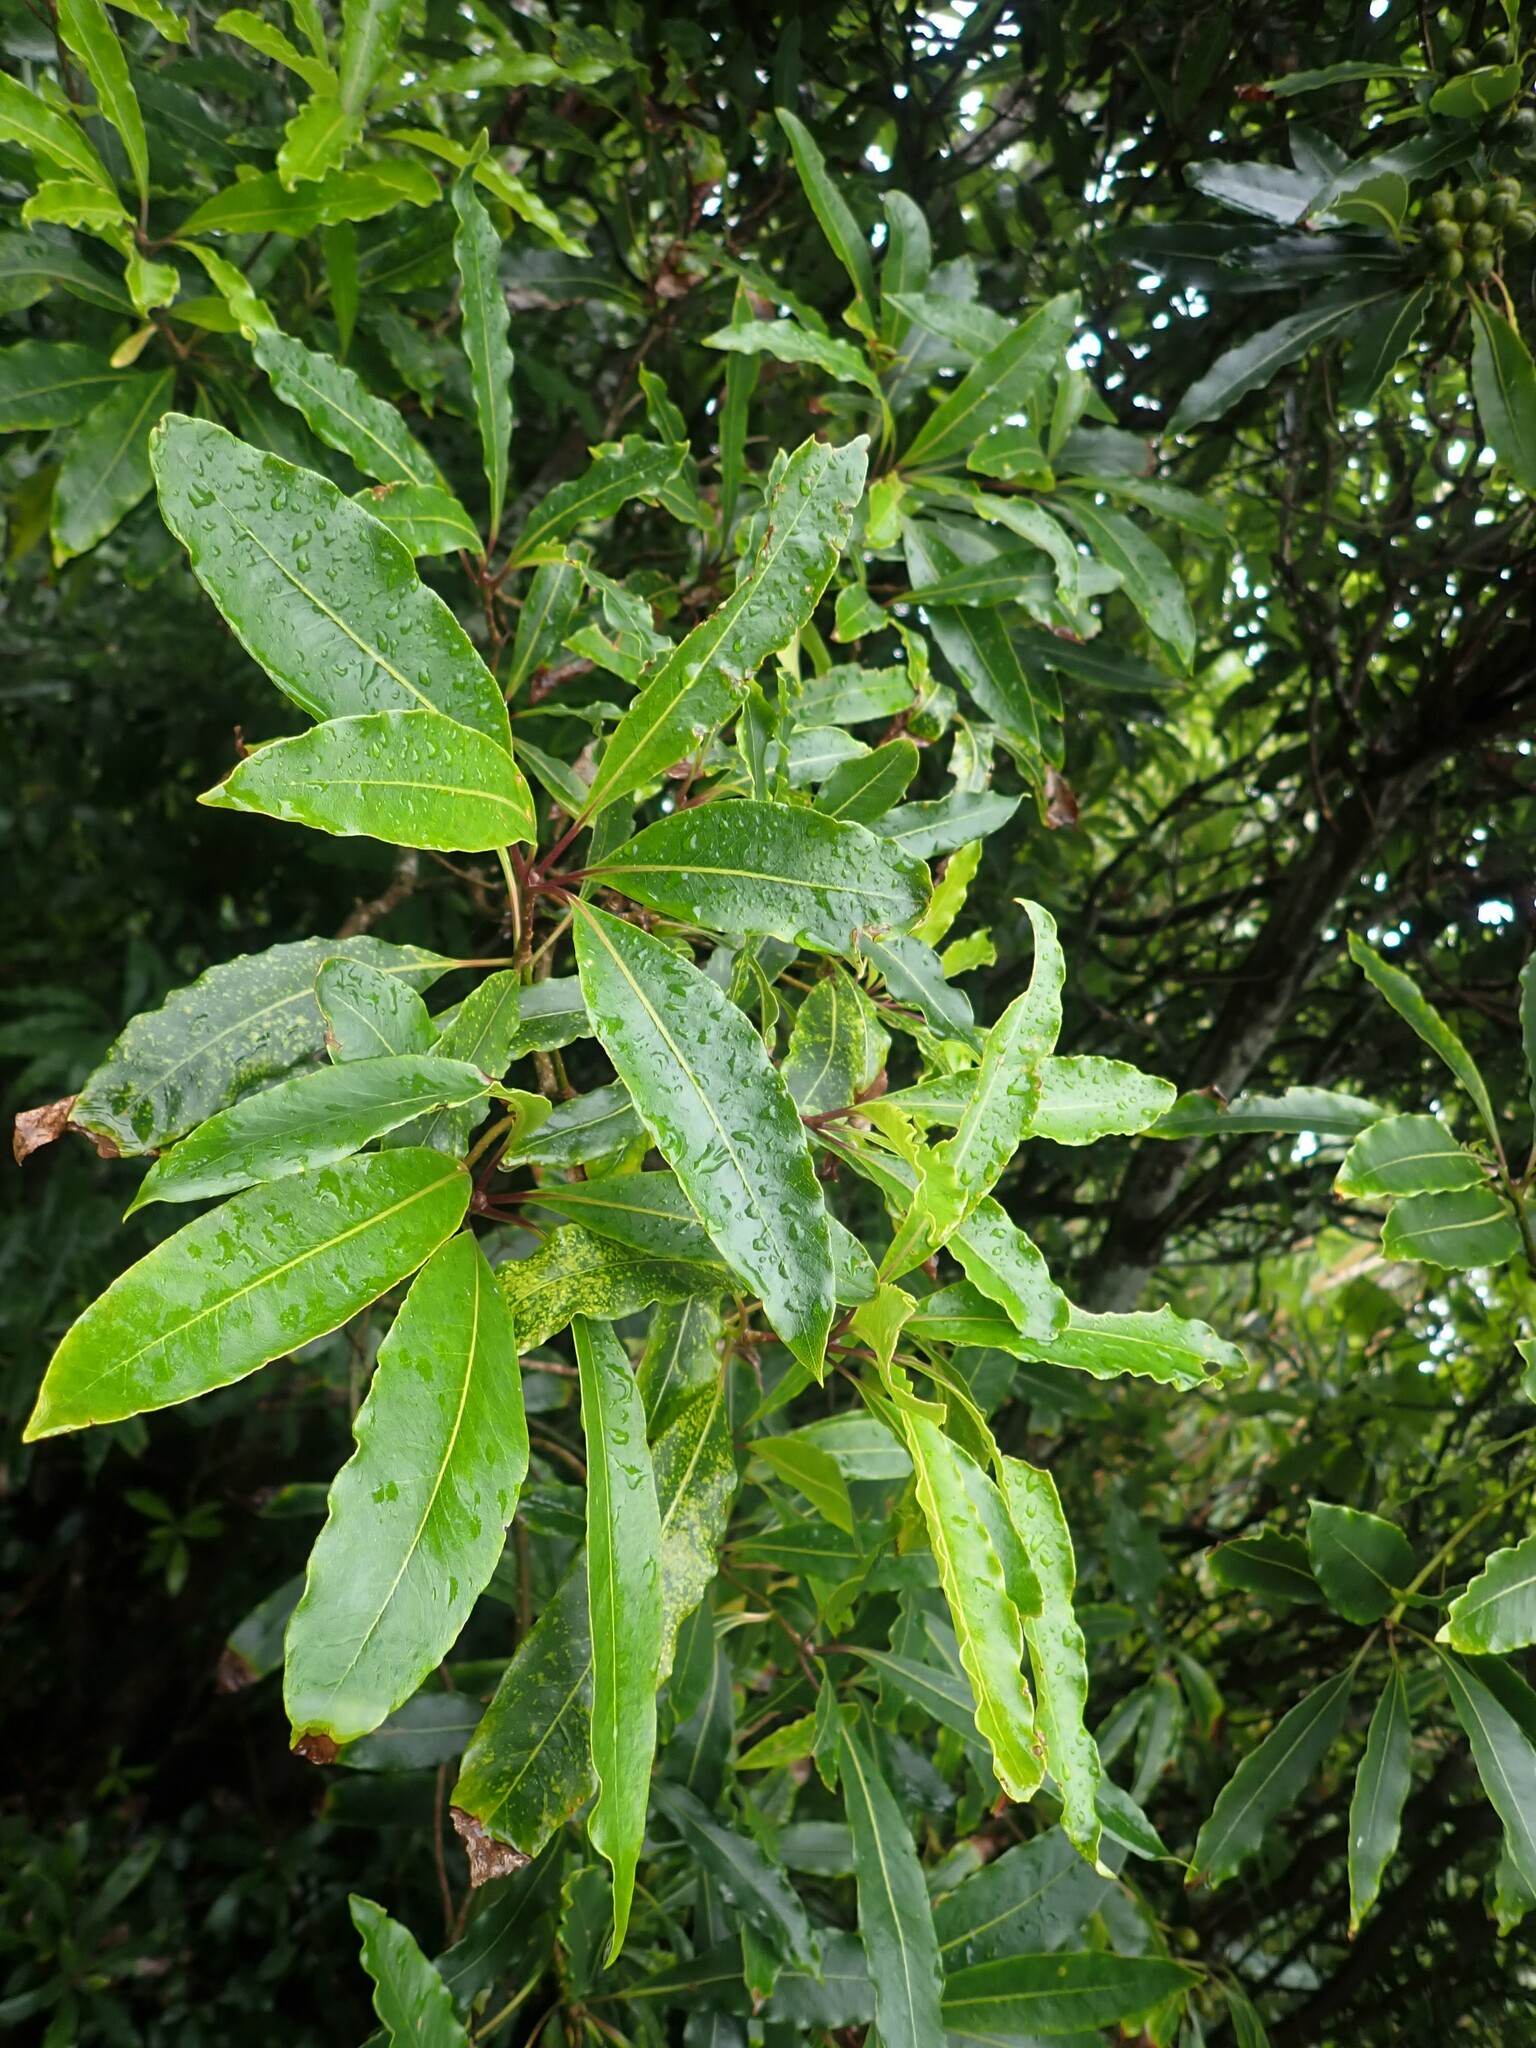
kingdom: Plantae
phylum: Tracheophyta
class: Magnoliopsida
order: Apiales
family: Pittosporaceae
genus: Pittosporum
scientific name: Pittosporum undulatum
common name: Australian cheesewood
